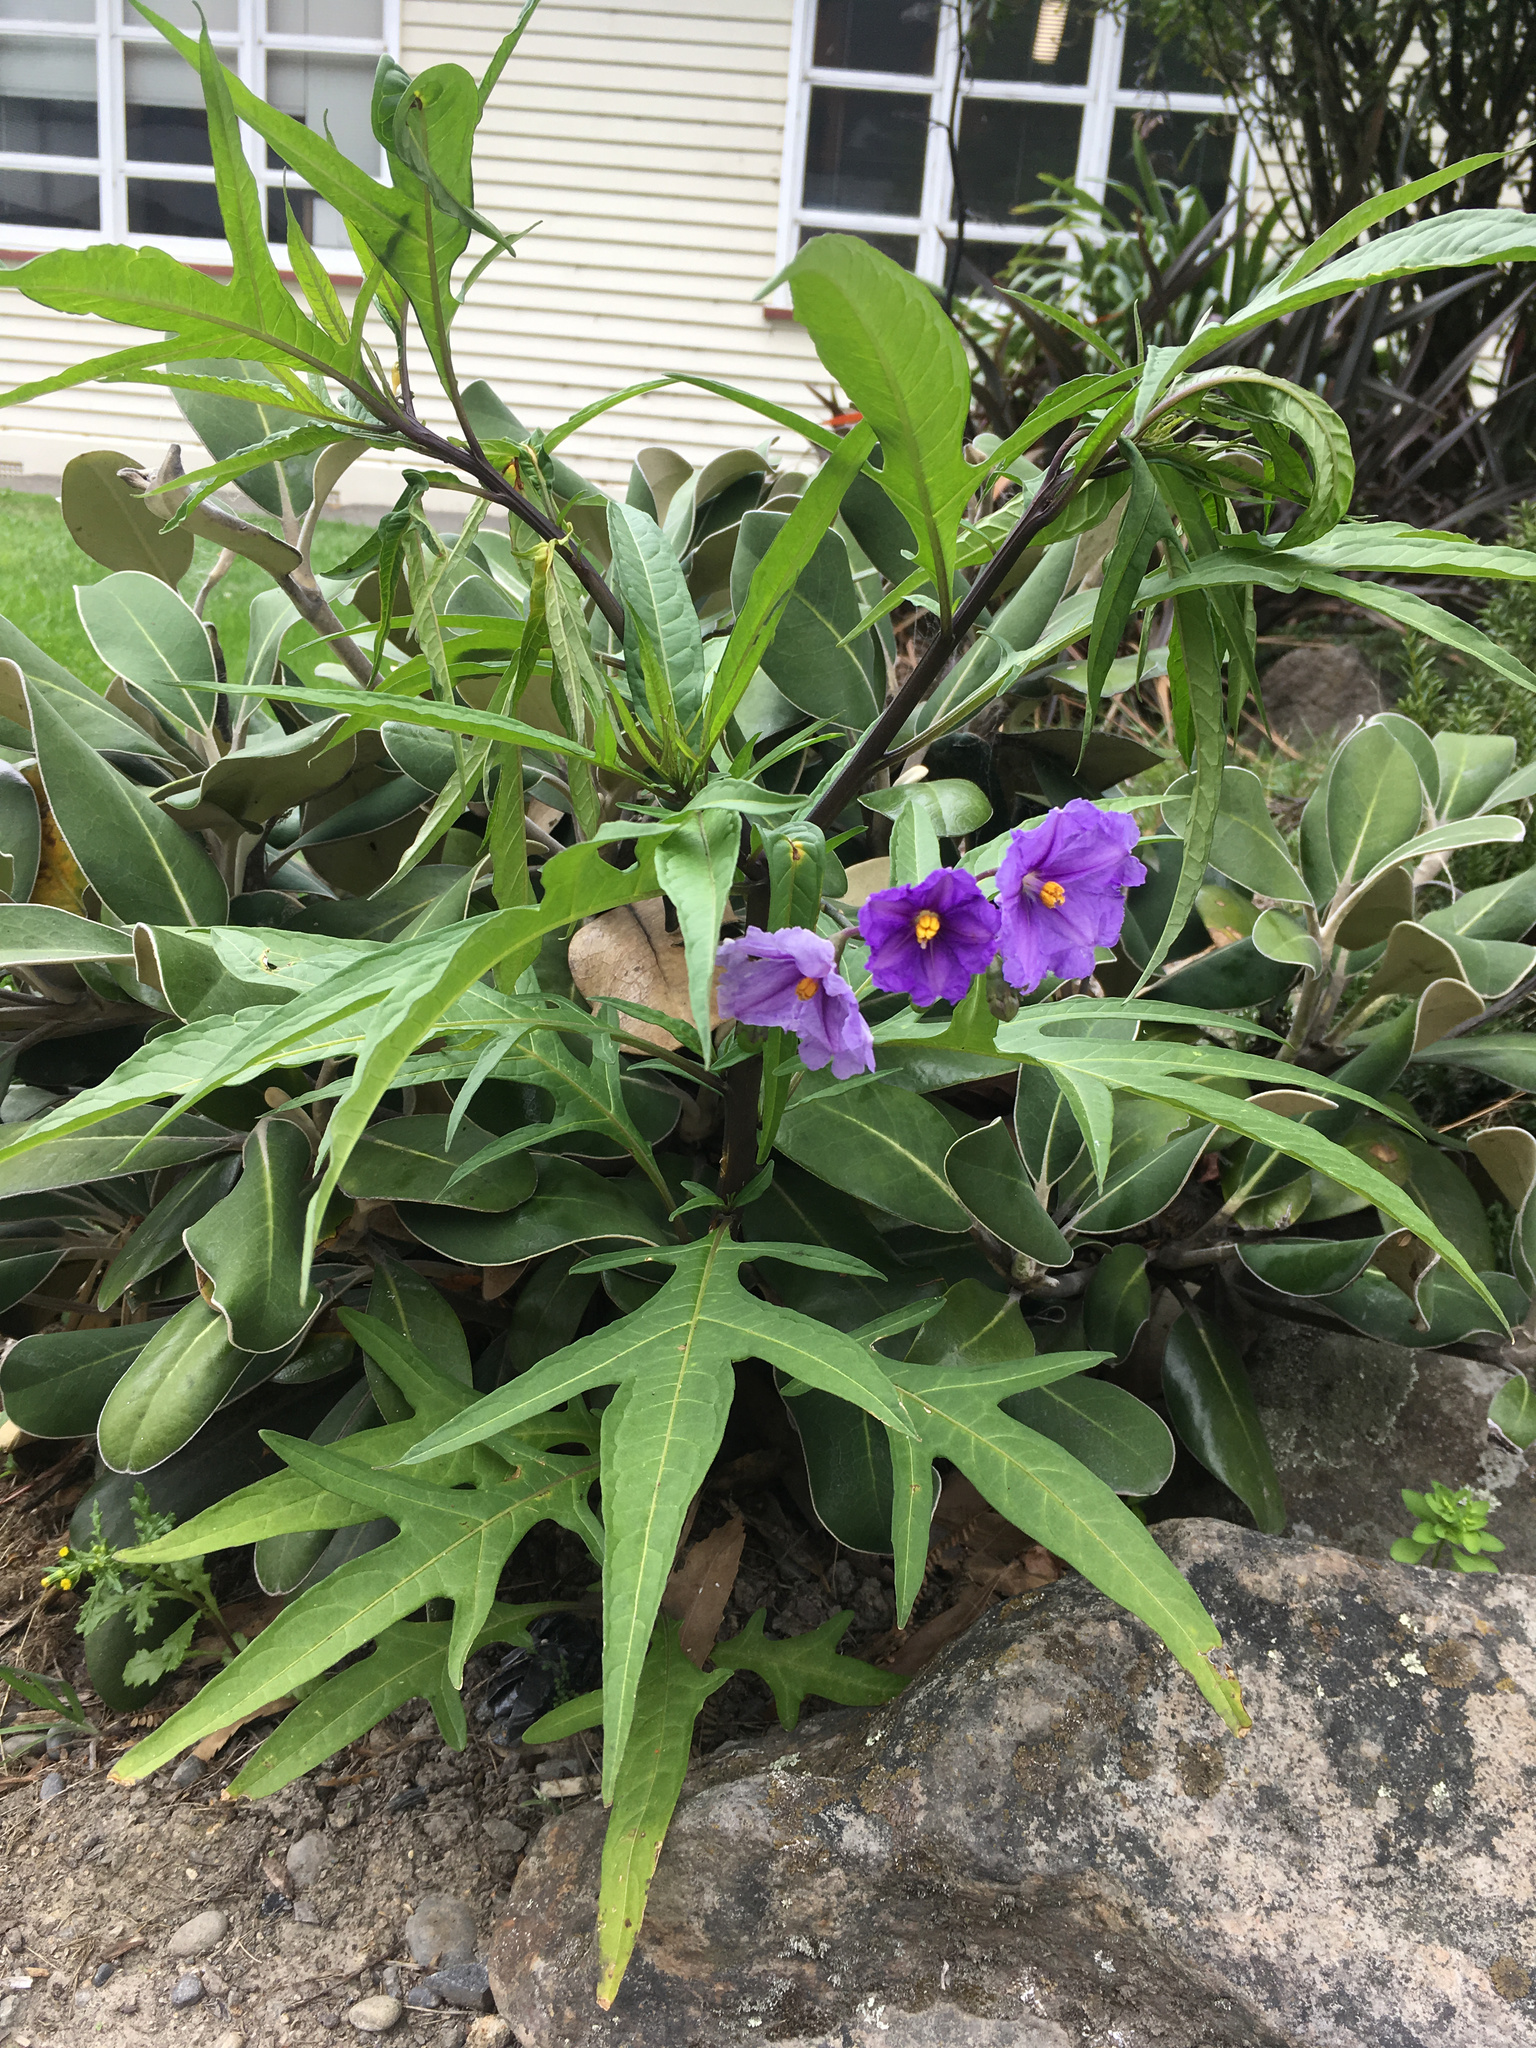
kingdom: Plantae
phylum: Tracheophyta
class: Magnoliopsida
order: Solanales
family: Solanaceae
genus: Solanum
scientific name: Solanum laciniatum
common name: Kangaroo-apple
